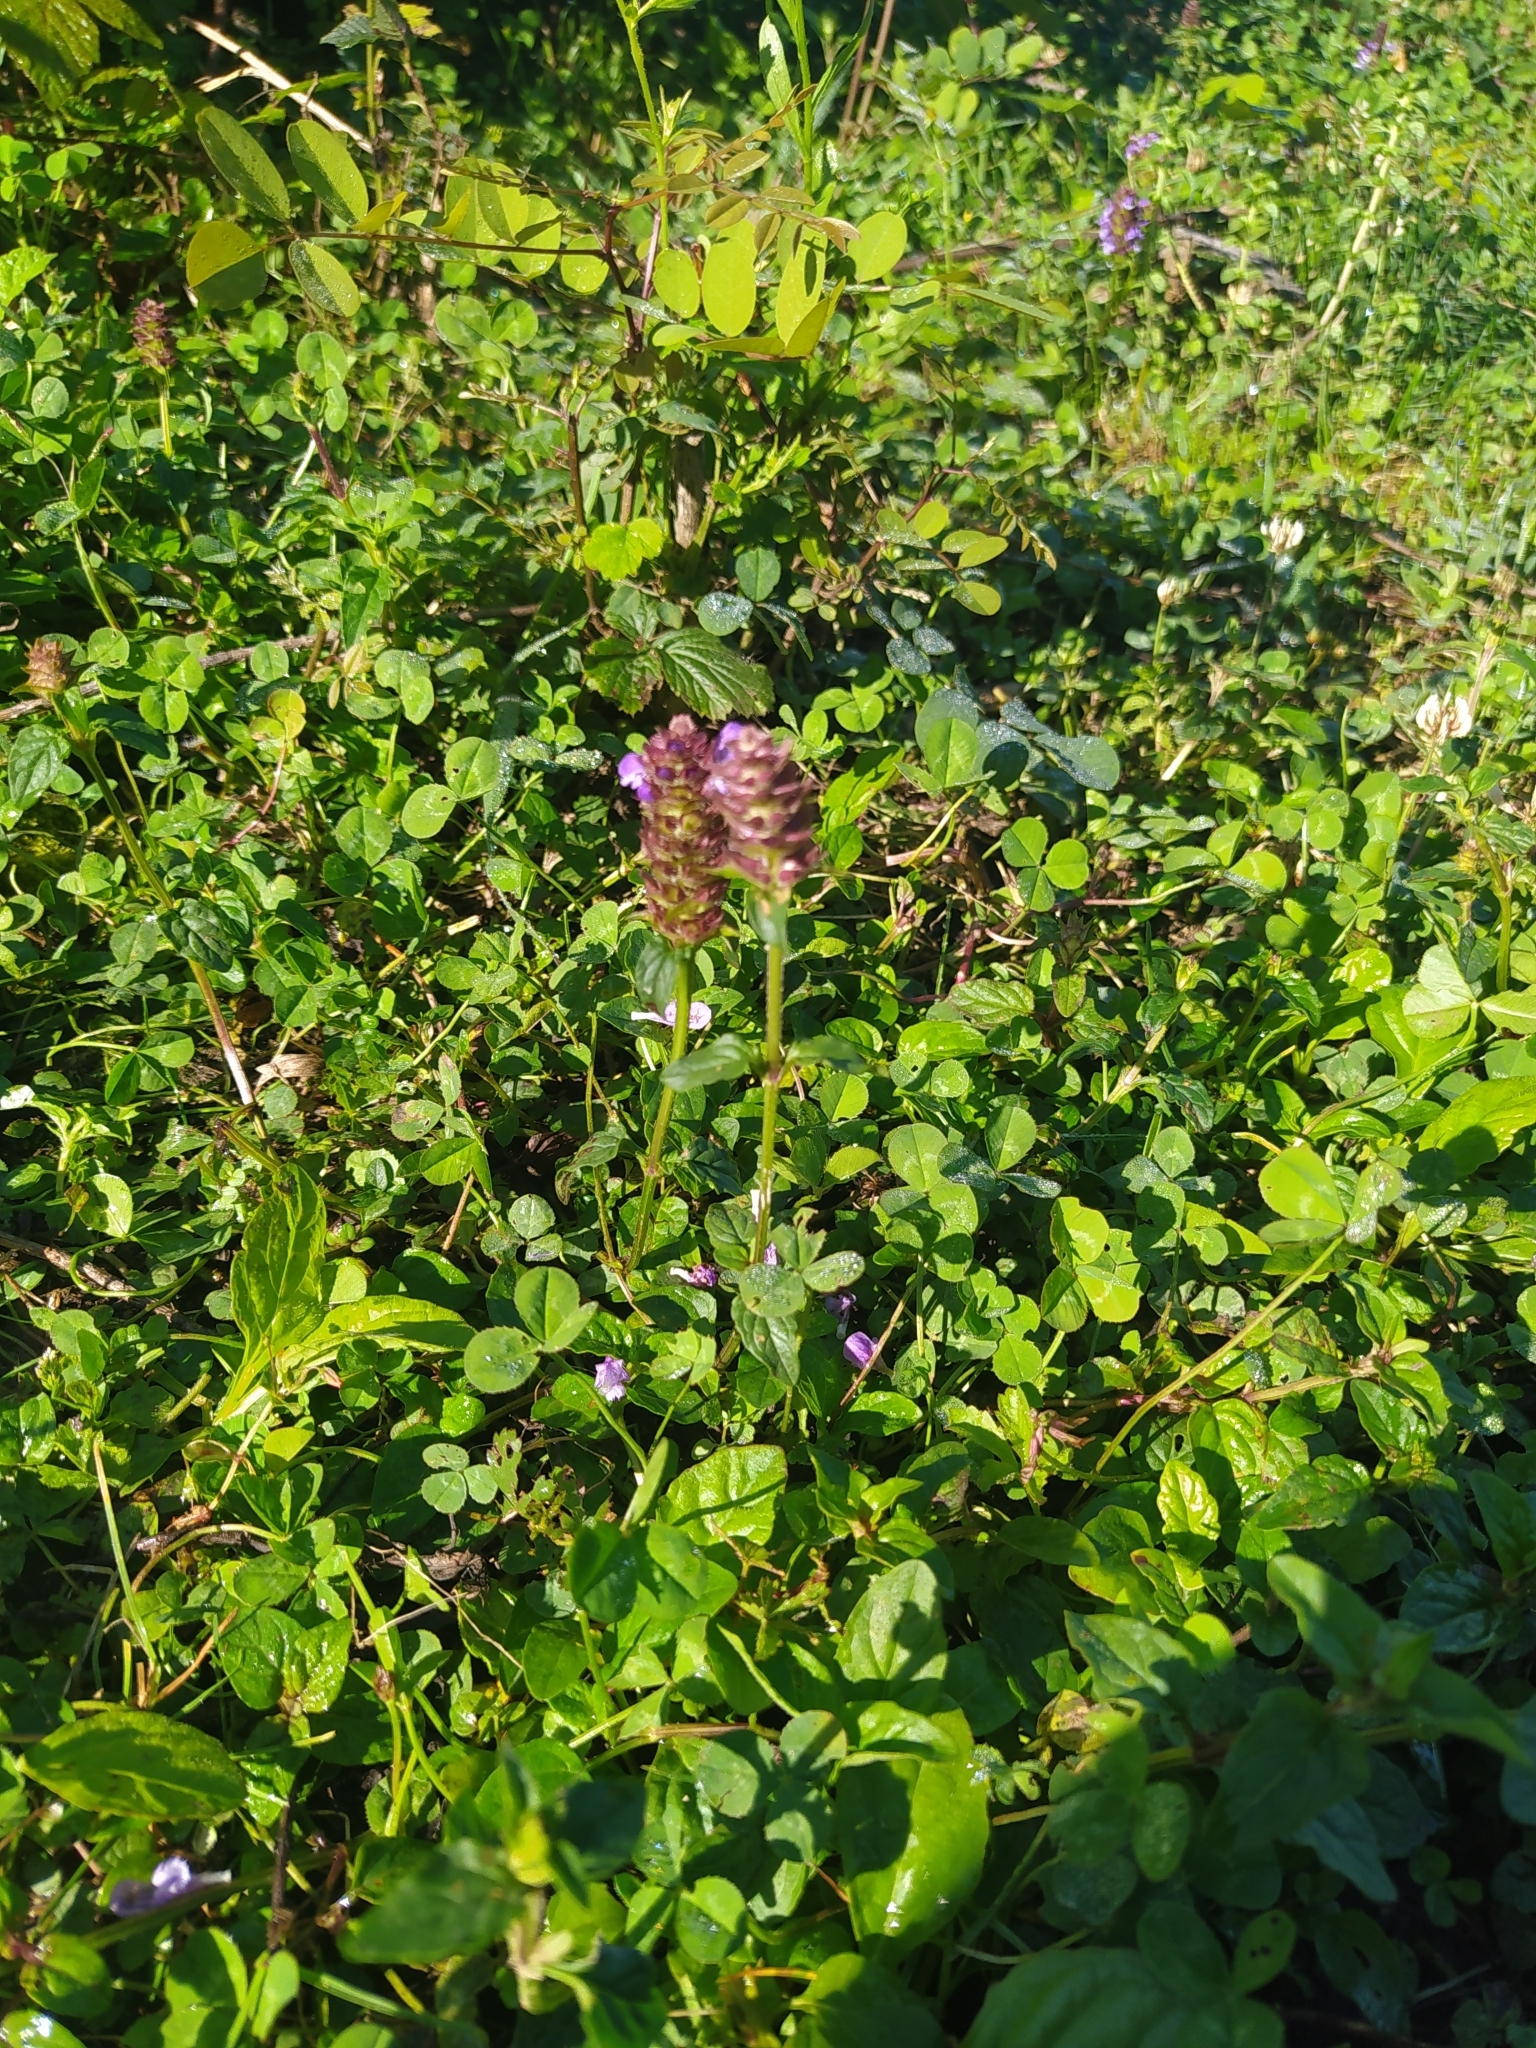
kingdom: Plantae
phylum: Tracheophyta
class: Magnoliopsida
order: Lamiales
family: Lamiaceae
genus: Prunella
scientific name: Prunella vulgaris
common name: Heal-all
